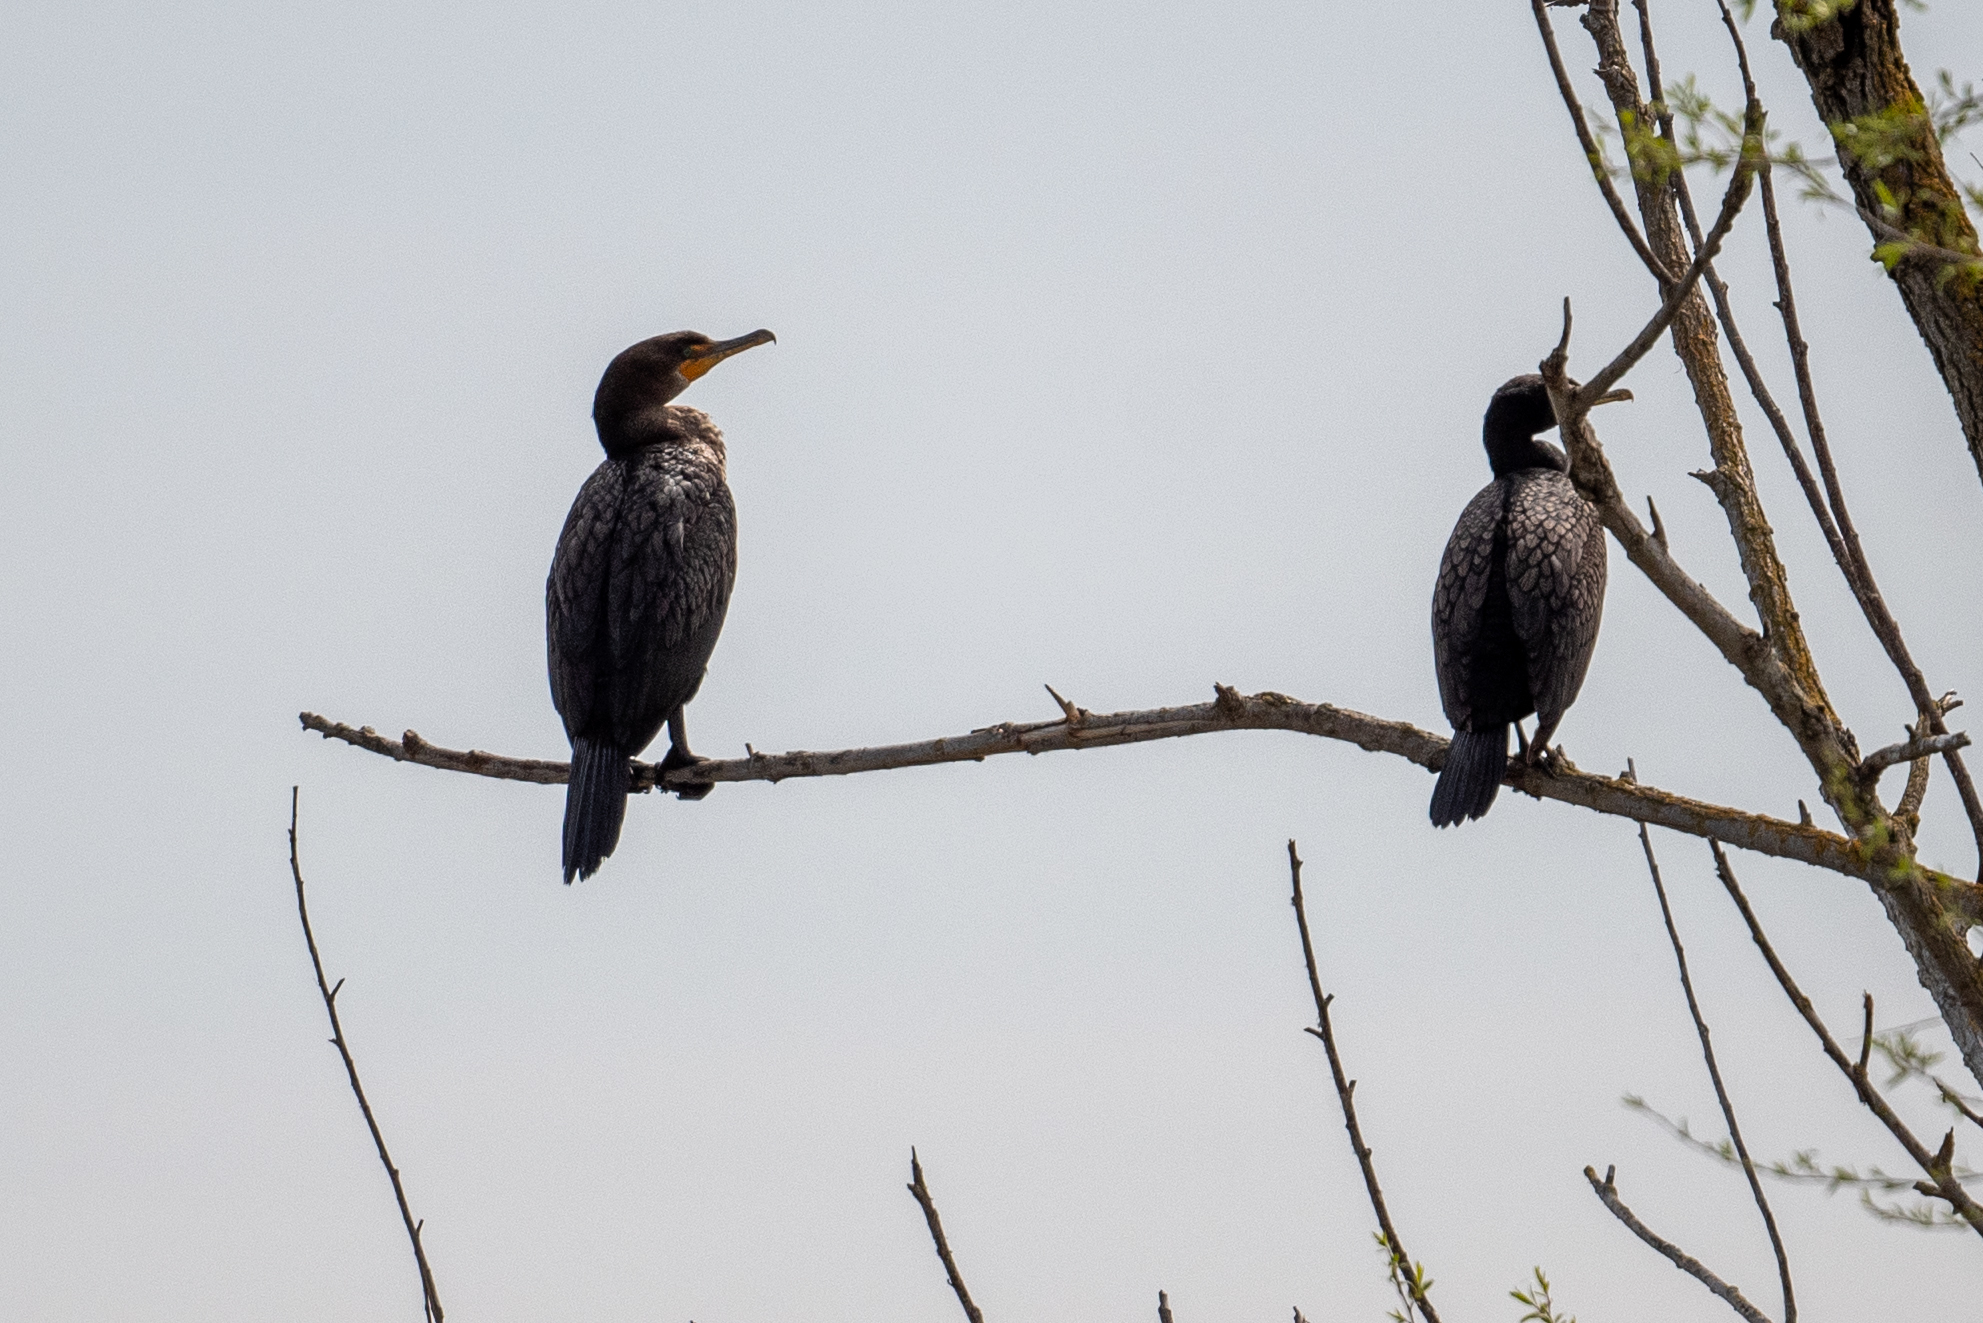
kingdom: Animalia
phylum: Chordata
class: Aves
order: Suliformes
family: Phalacrocoracidae
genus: Phalacrocorax
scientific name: Phalacrocorax auritus
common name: Double-crested cormorant
